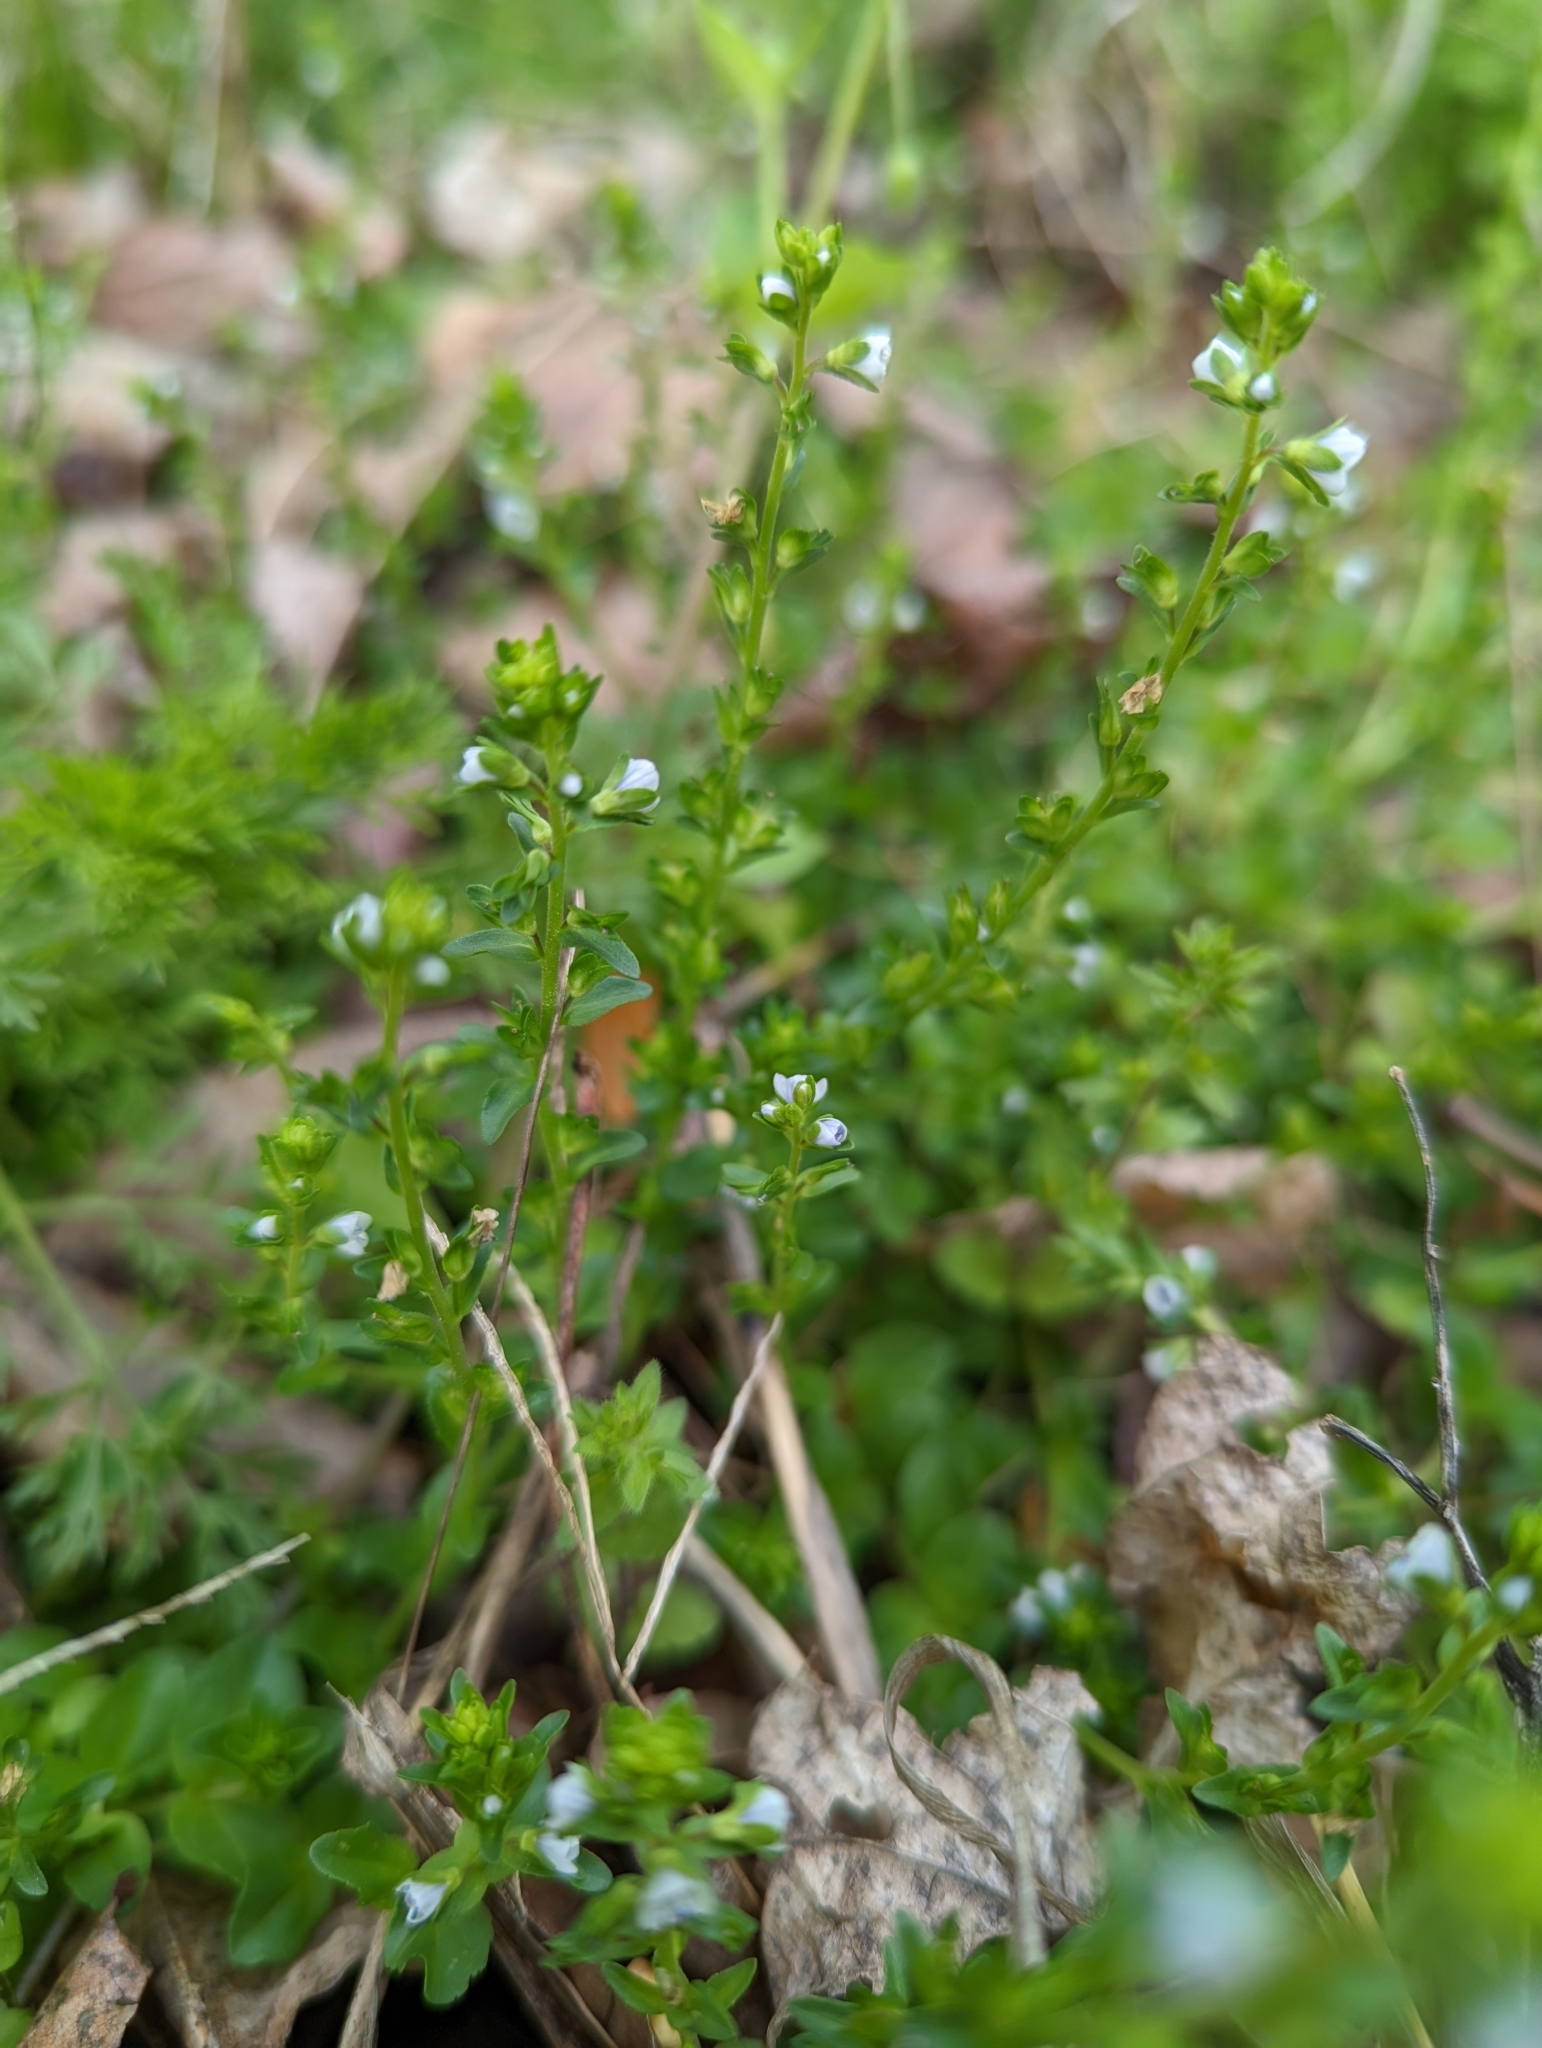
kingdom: Plantae
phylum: Tracheophyta
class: Magnoliopsida
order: Lamiales
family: Plantaginaceae
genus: Veronica
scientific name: Veronica serpyllifolia
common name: Thyme-leaved speedwell
